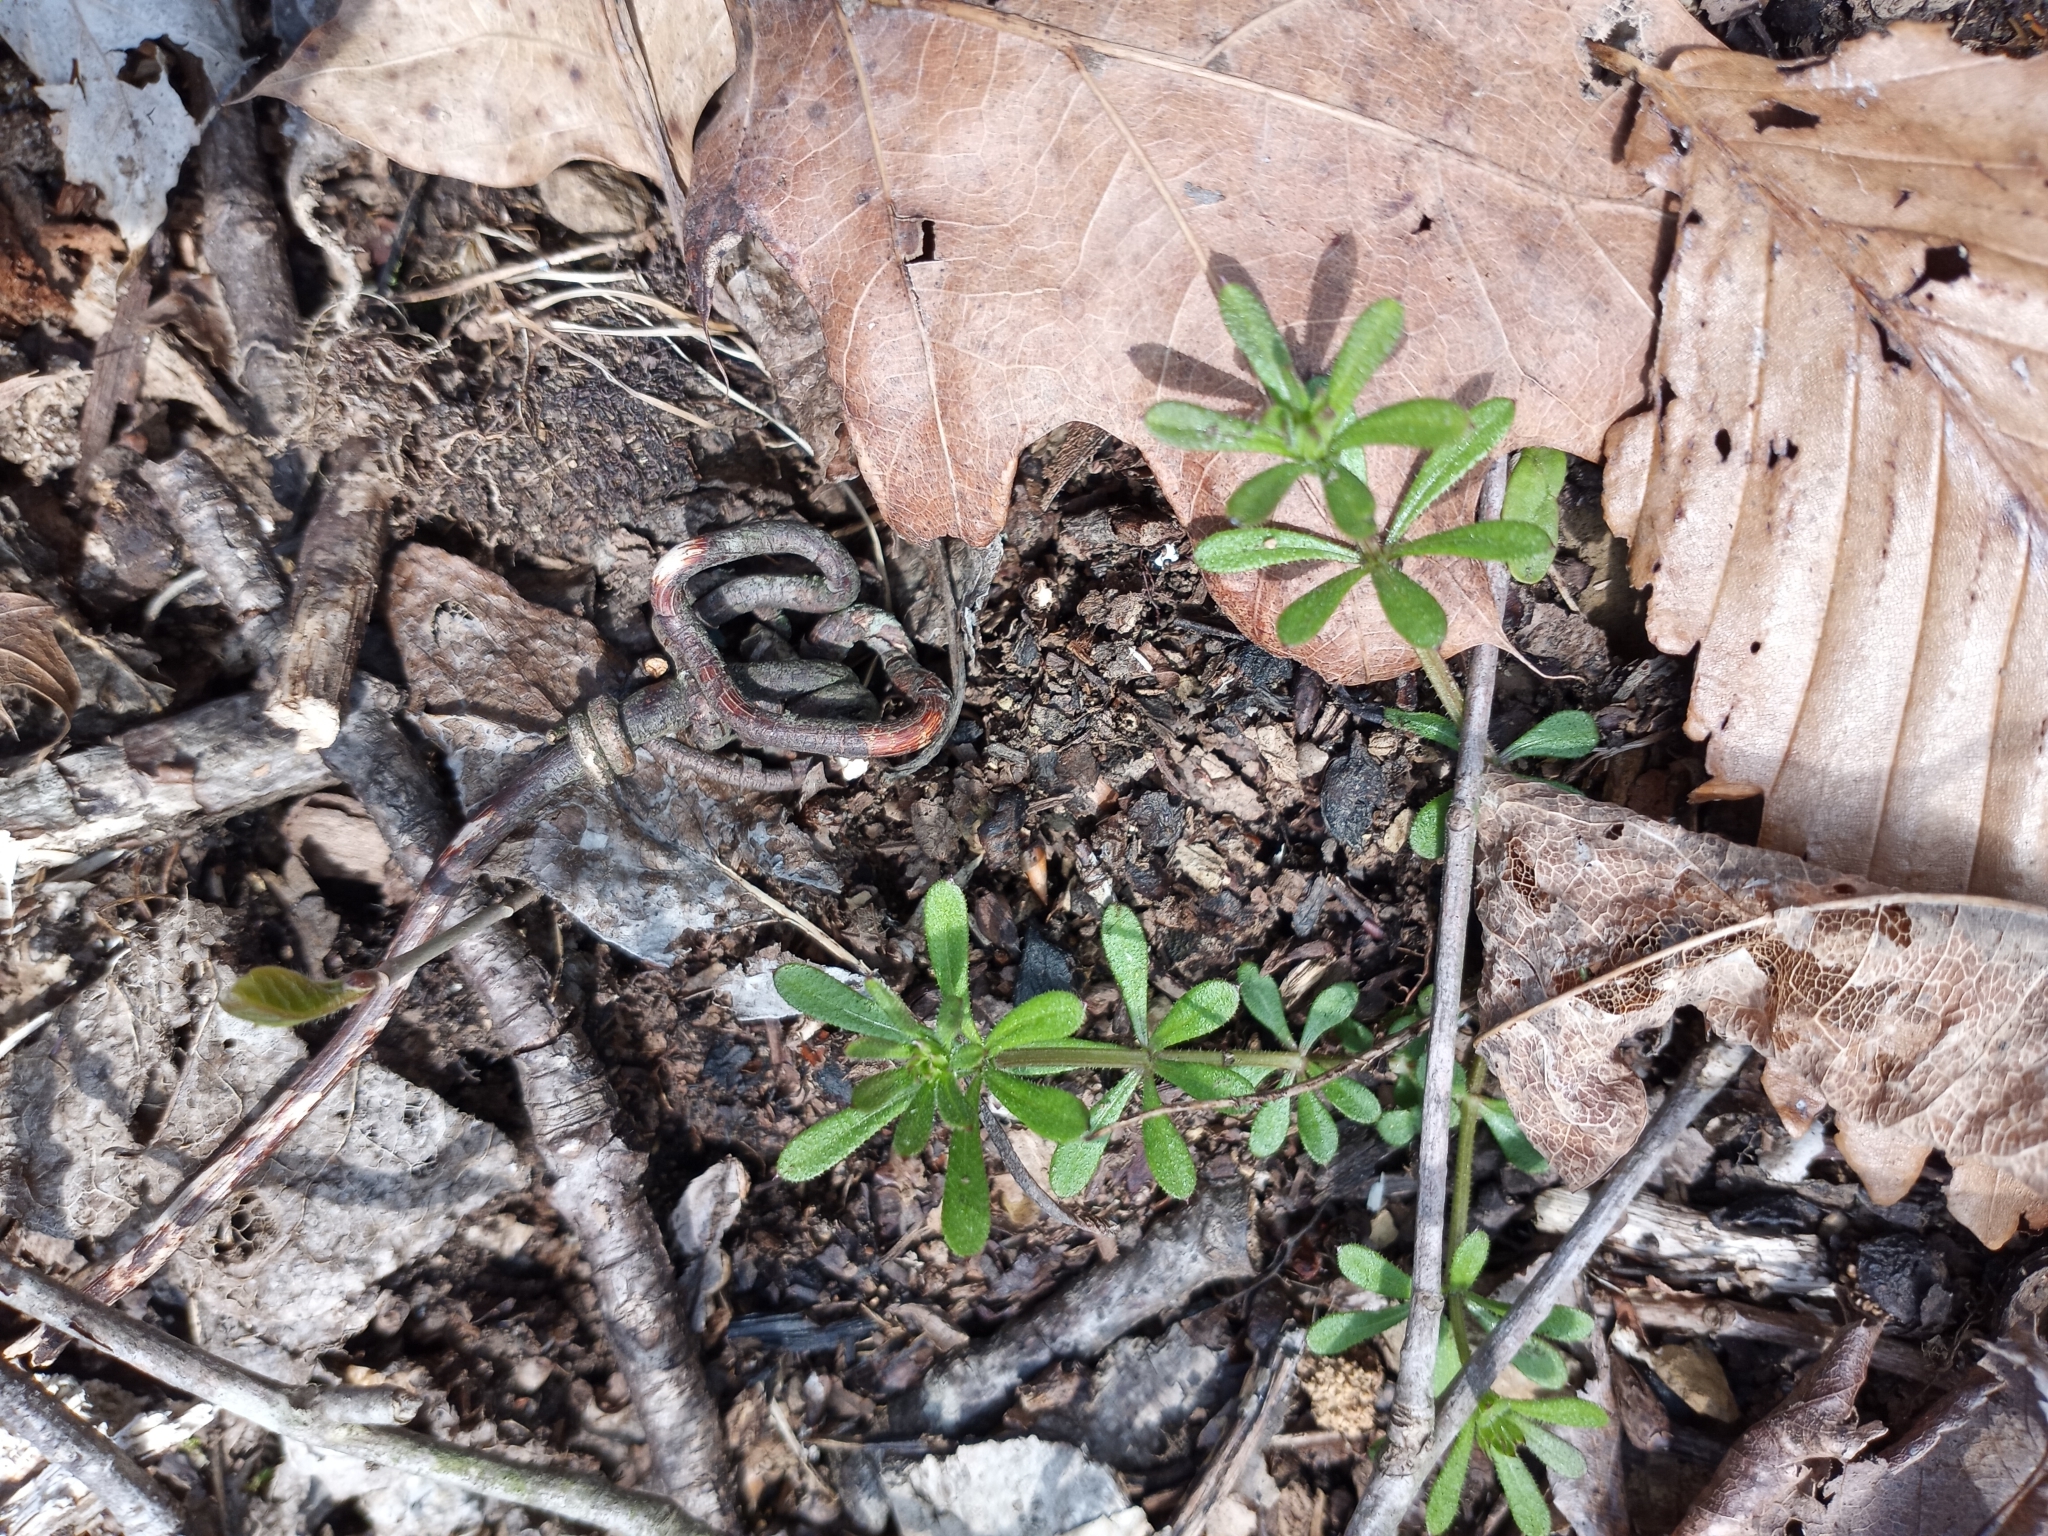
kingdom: Plantae
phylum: Tracheophyta
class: Magnoliopsida
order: Gentianales
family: Rubiaceae
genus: Galium
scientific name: Galium aparine
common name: Cleavers
